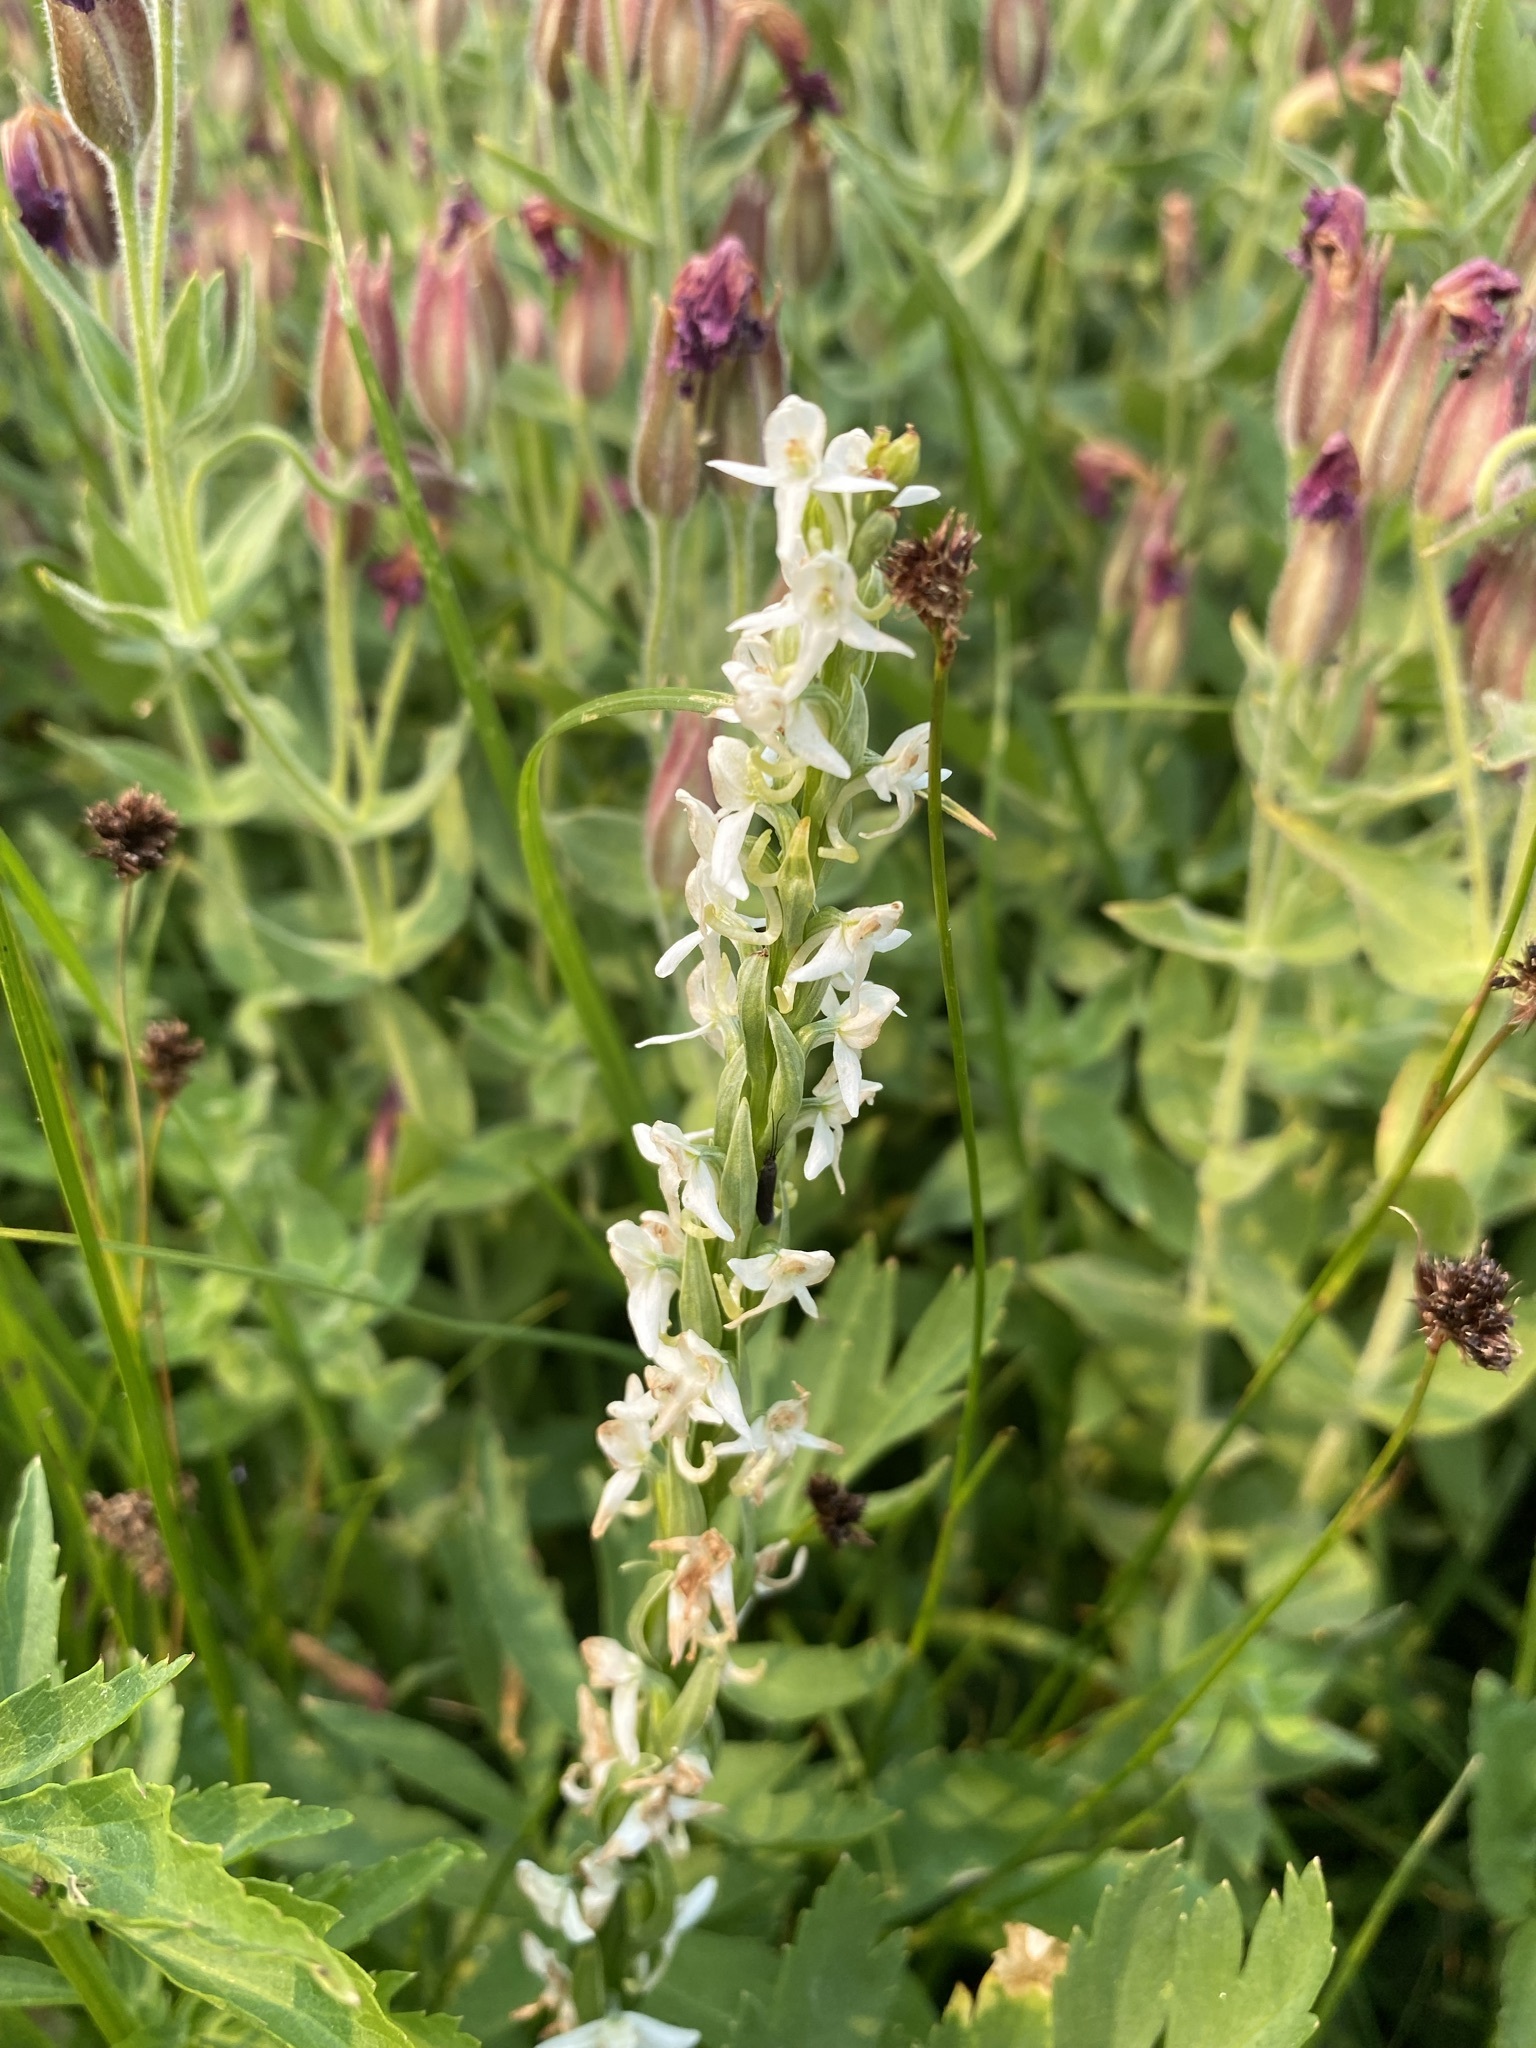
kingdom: Plantae
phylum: Tracheophyta
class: Liliopsida
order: Asparagales
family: Orchidaceae
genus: Platanthera
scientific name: Platanthera dilatata
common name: Bog candles
